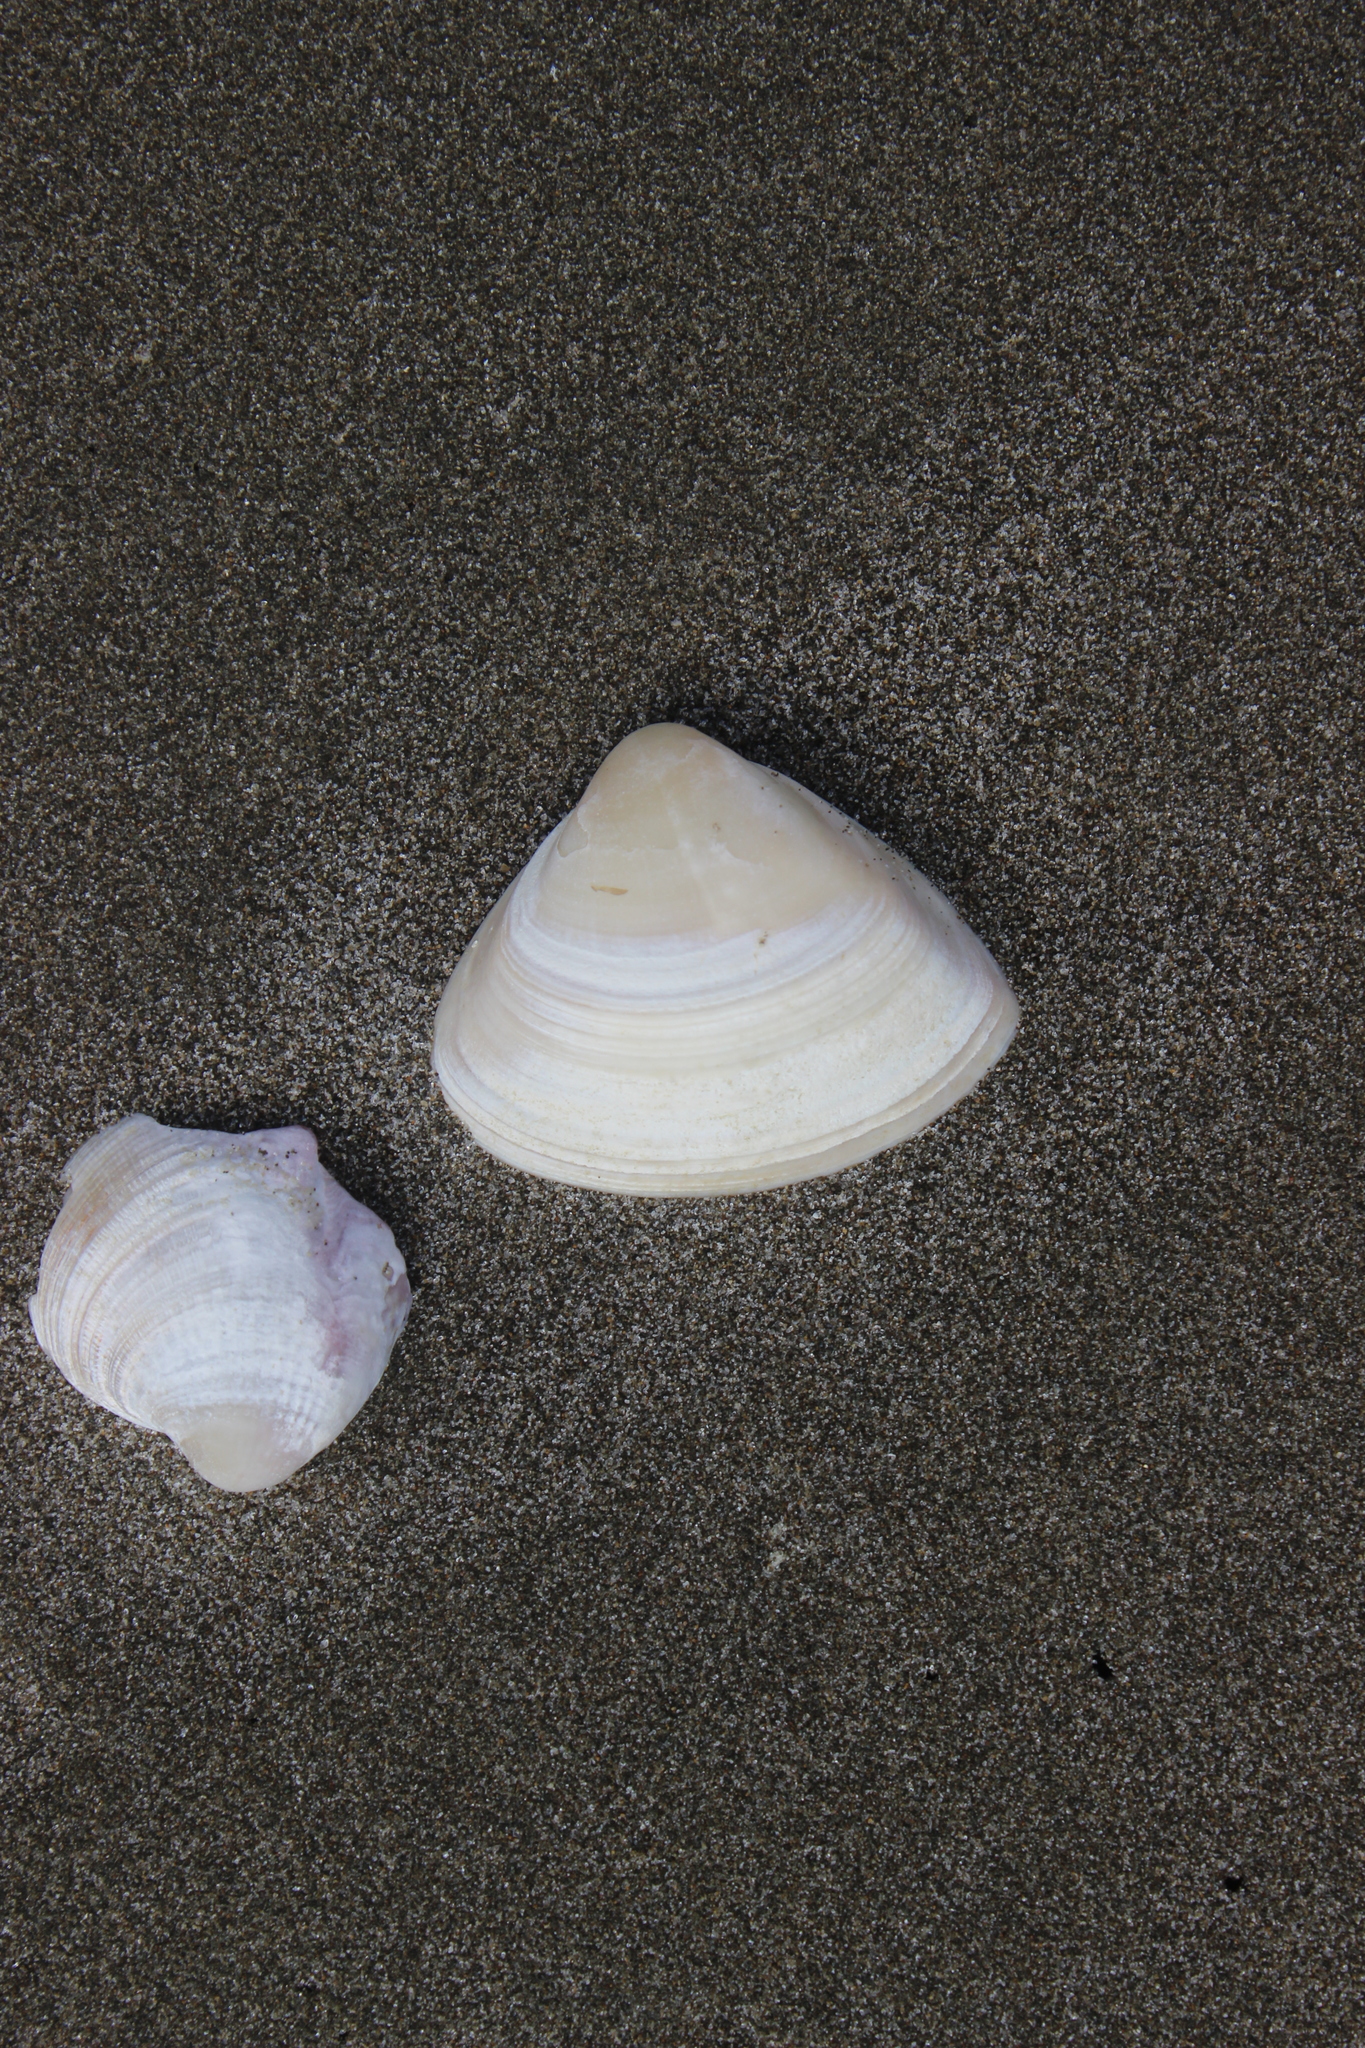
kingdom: Animalia
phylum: Mollusca
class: Bivalvia
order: Venerida
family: Mactridae
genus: Crassula
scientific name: Crassula aequilatera
